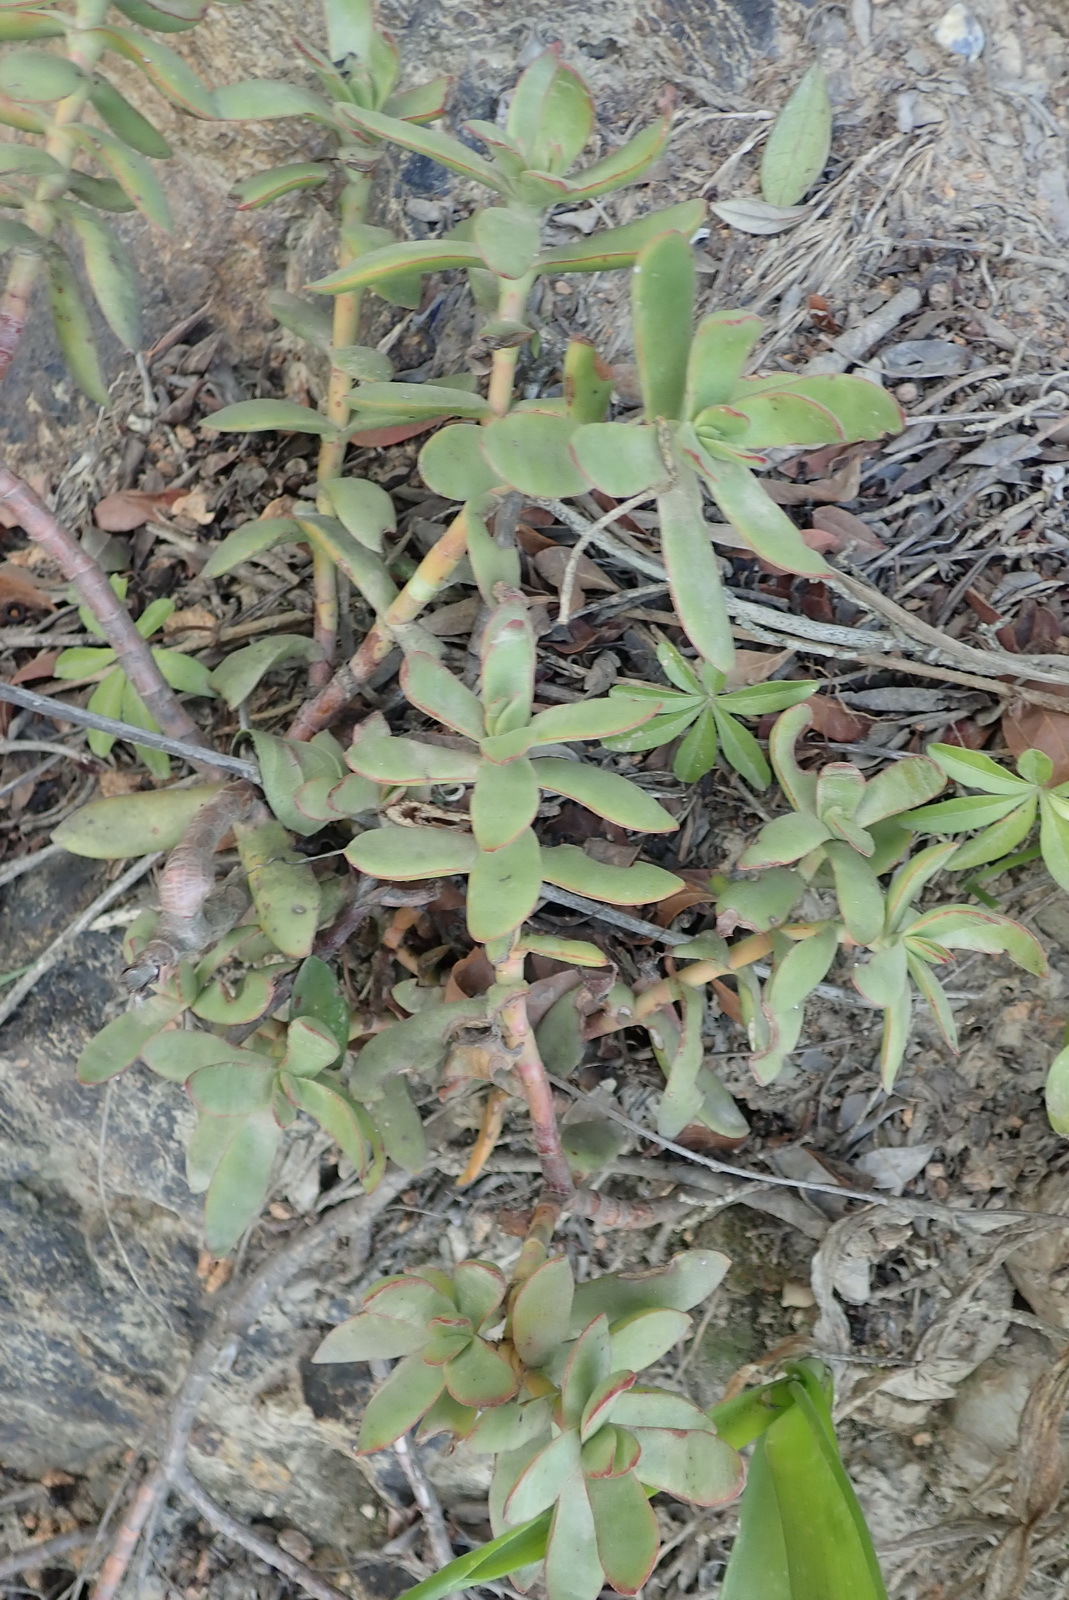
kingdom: Plantae
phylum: Tracheophyta
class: Magnoliopsida
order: Saxifragales
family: Crassulaceae
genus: Crassula
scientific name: Crassula rubricaulis
